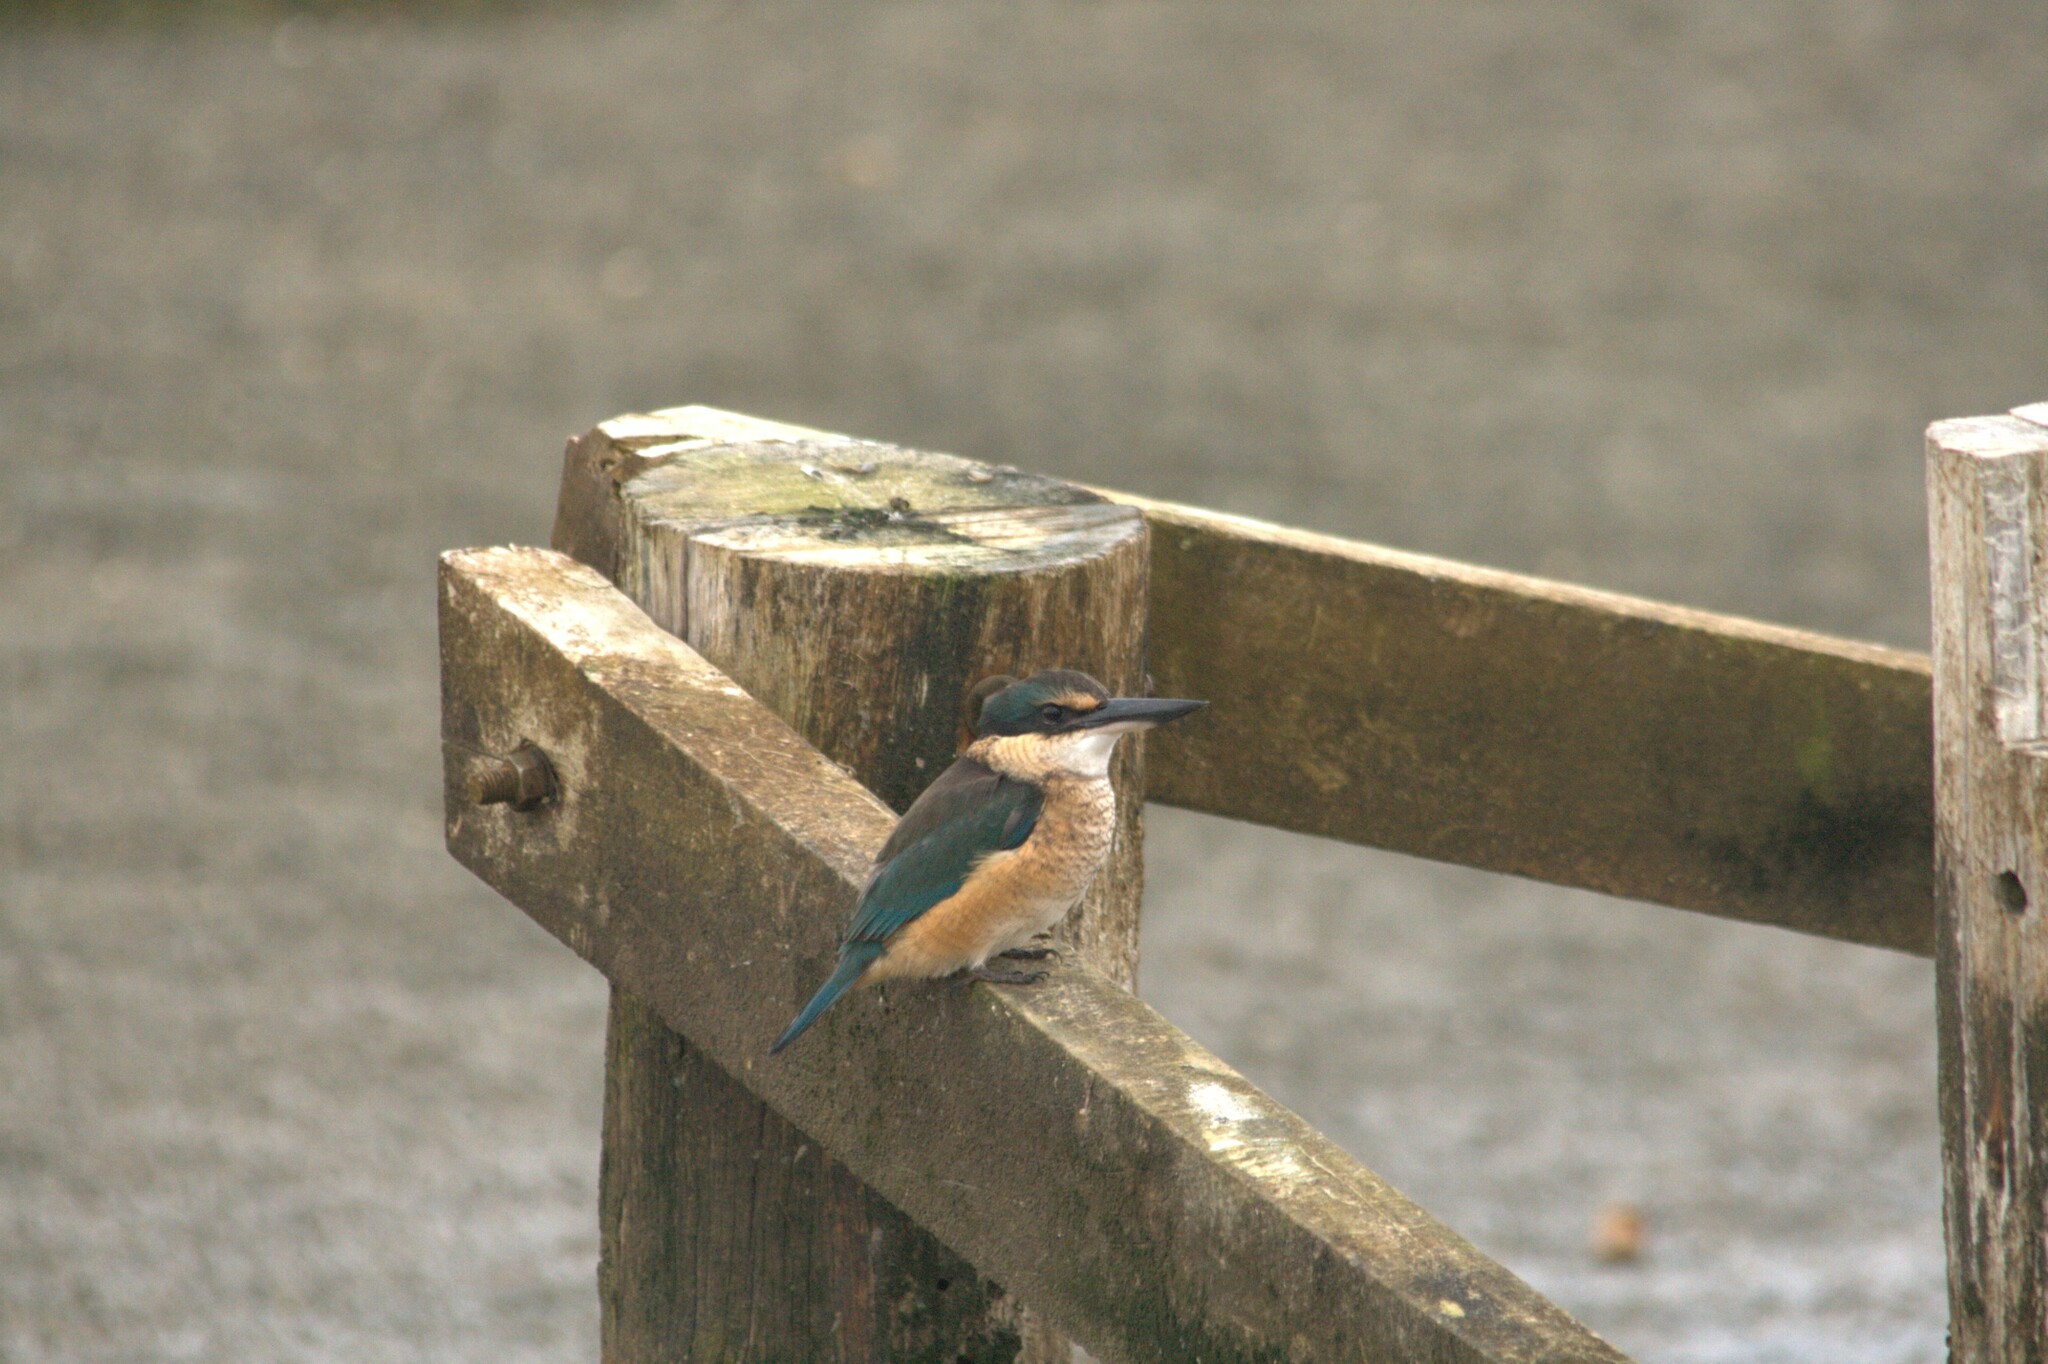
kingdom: Animalia
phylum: Chordata
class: Aves
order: Coraciiformes
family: Alcedinidae
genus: Todiramphus
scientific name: Todiramphus sanctus
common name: Sacred kingfisher
